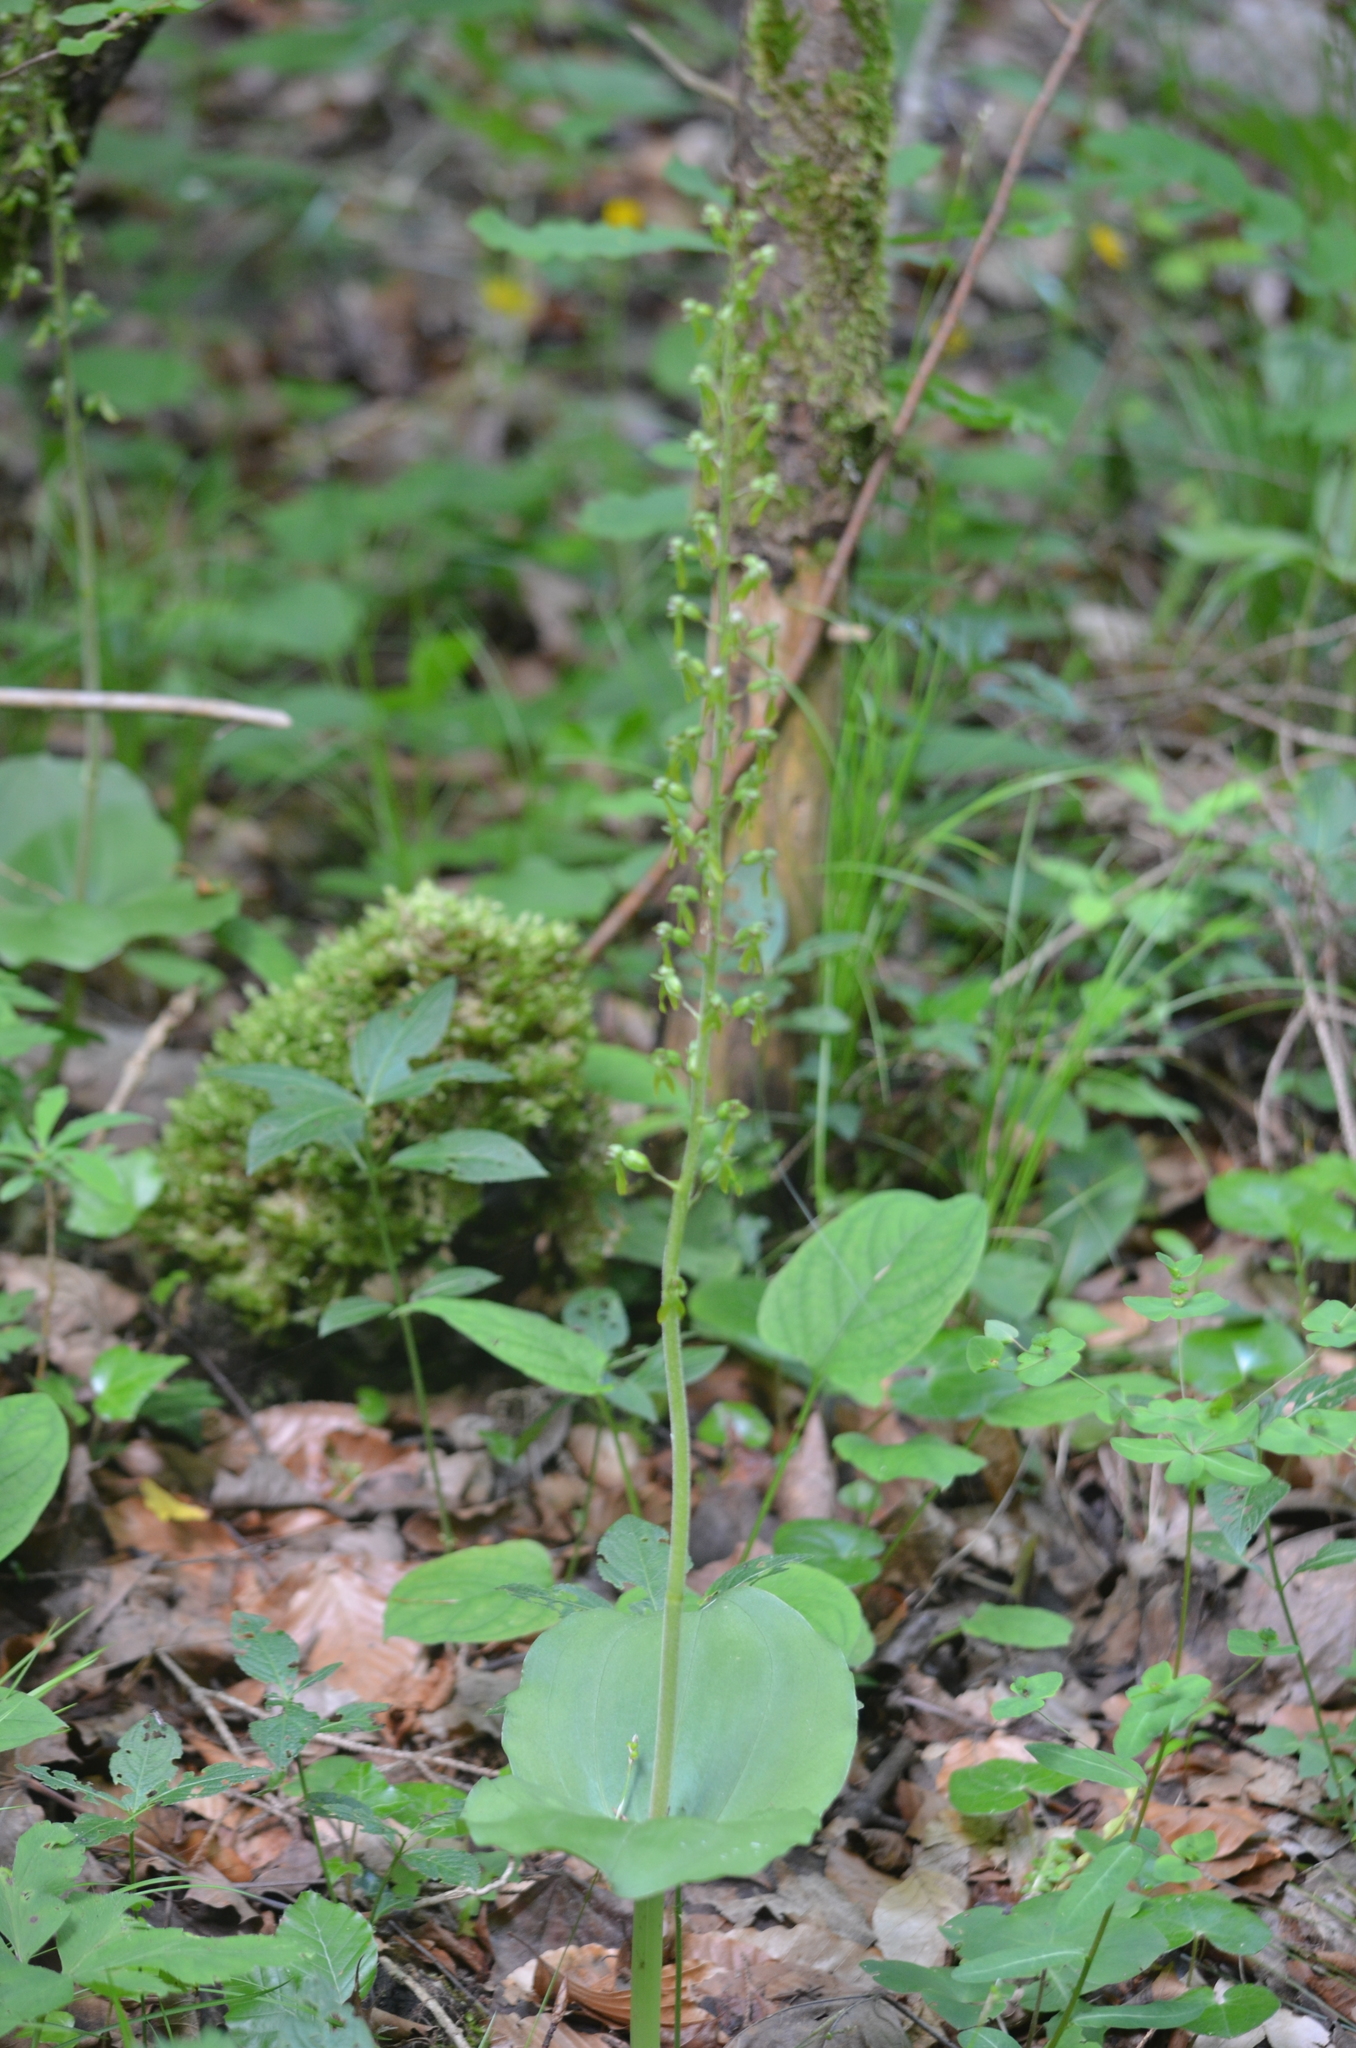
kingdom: Plantae
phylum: Tracheophyta
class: Liliopsida
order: Asparagales
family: Orchidaceae
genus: Neottia
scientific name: Neottia ovata
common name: Common twayblade
